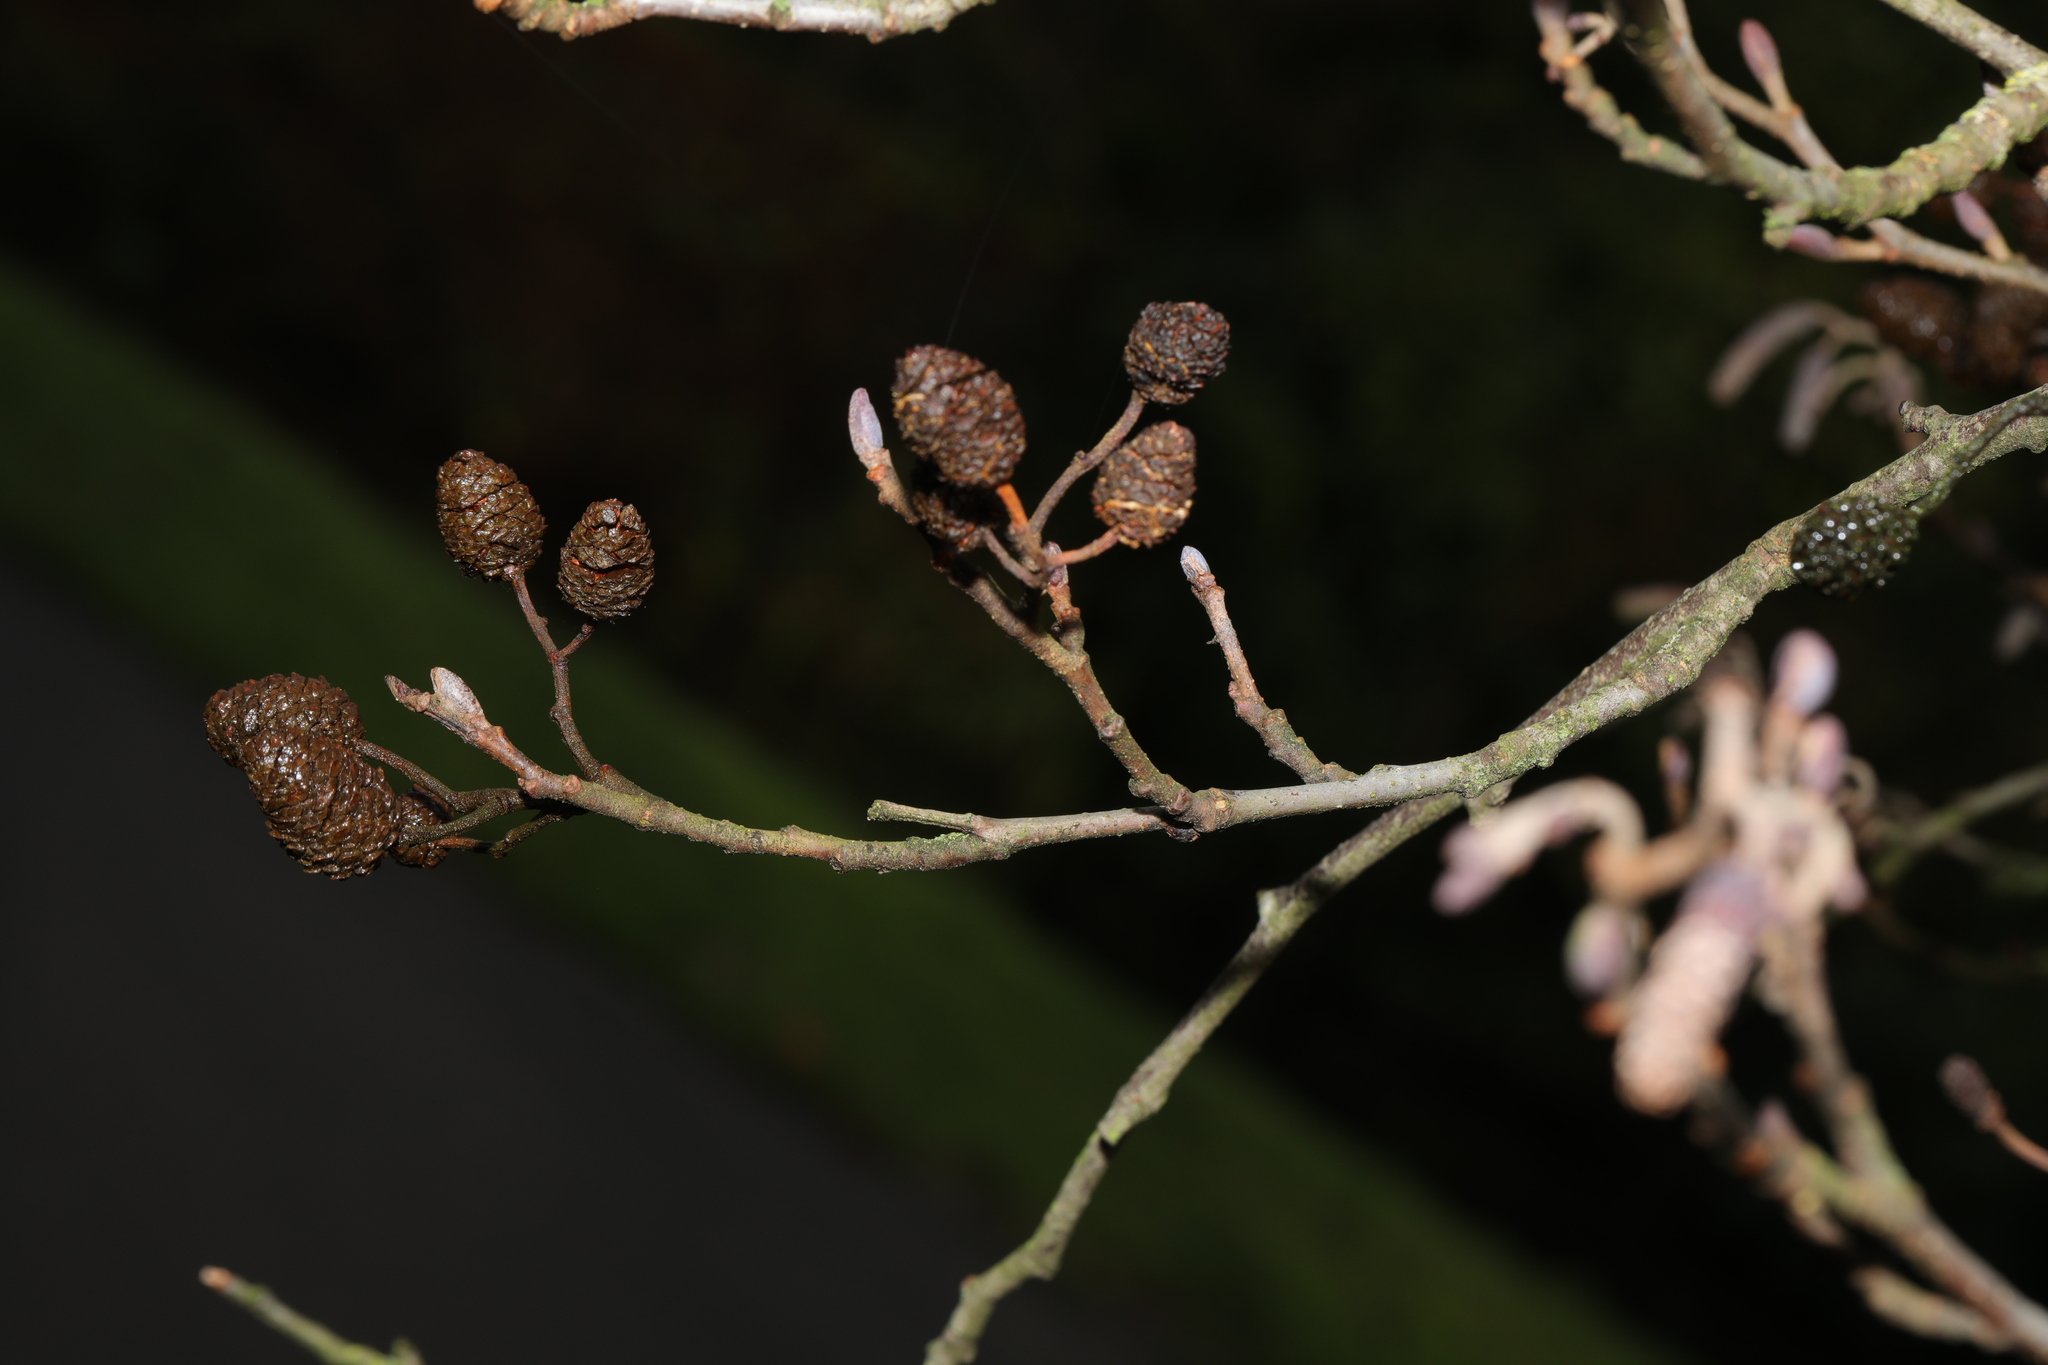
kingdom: Plantae
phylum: Tracheophyta
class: Magnoliopsida
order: Fagales
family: Betulaceae
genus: Alnus
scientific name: Alnus glutinosa
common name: Black alder
